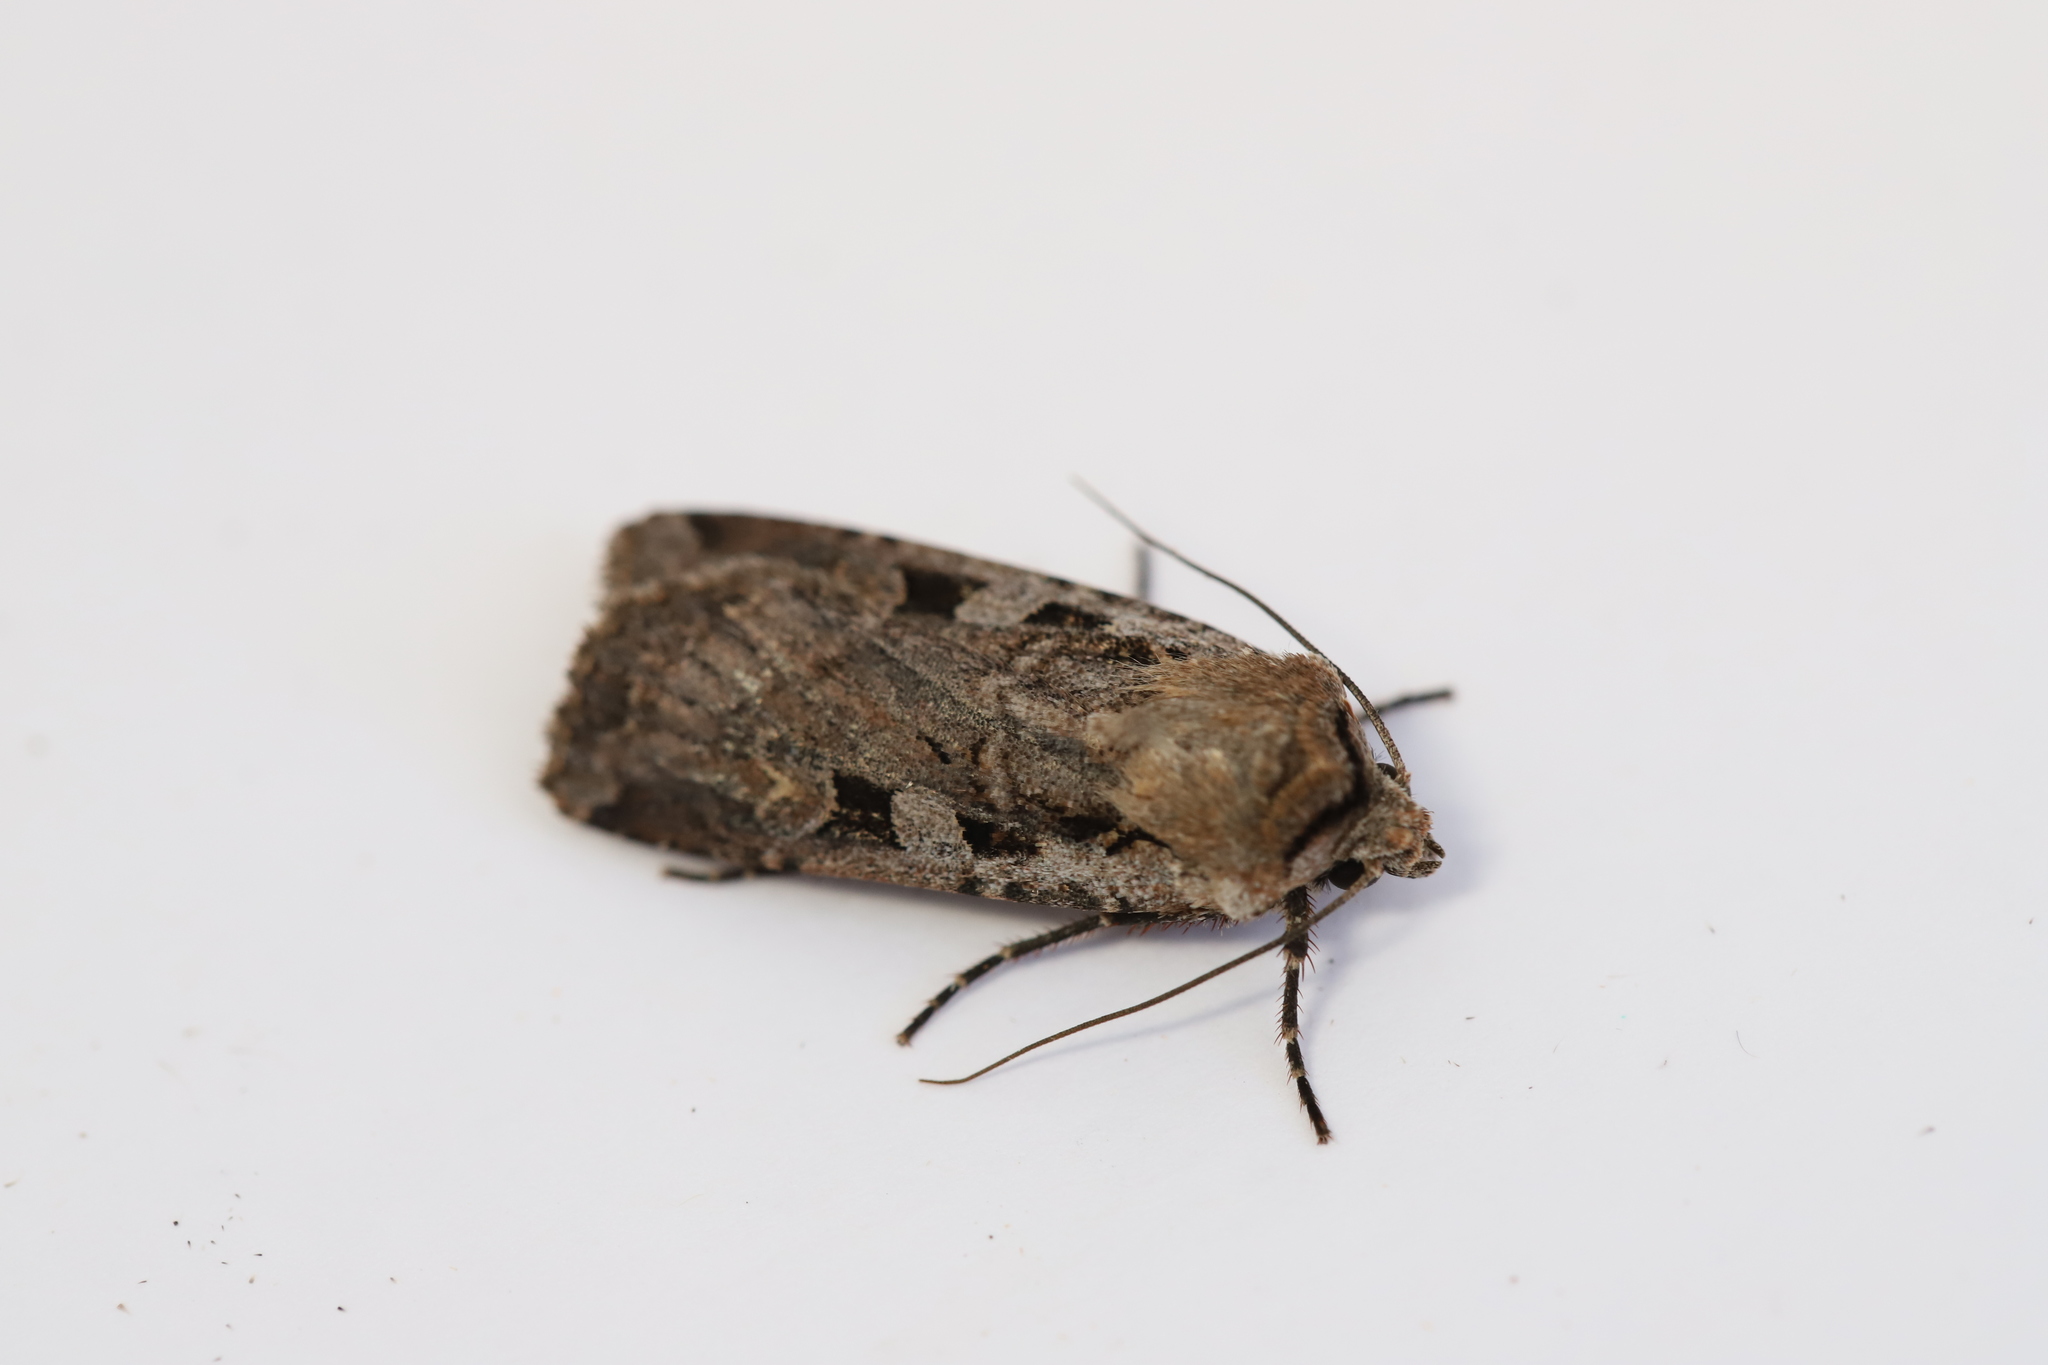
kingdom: Animalia
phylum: Arthropoda
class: Insecta
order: Lepidoptera
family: Noctuidae
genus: Euxoa
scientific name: Euxoa tessellata
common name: Striped cutworm
